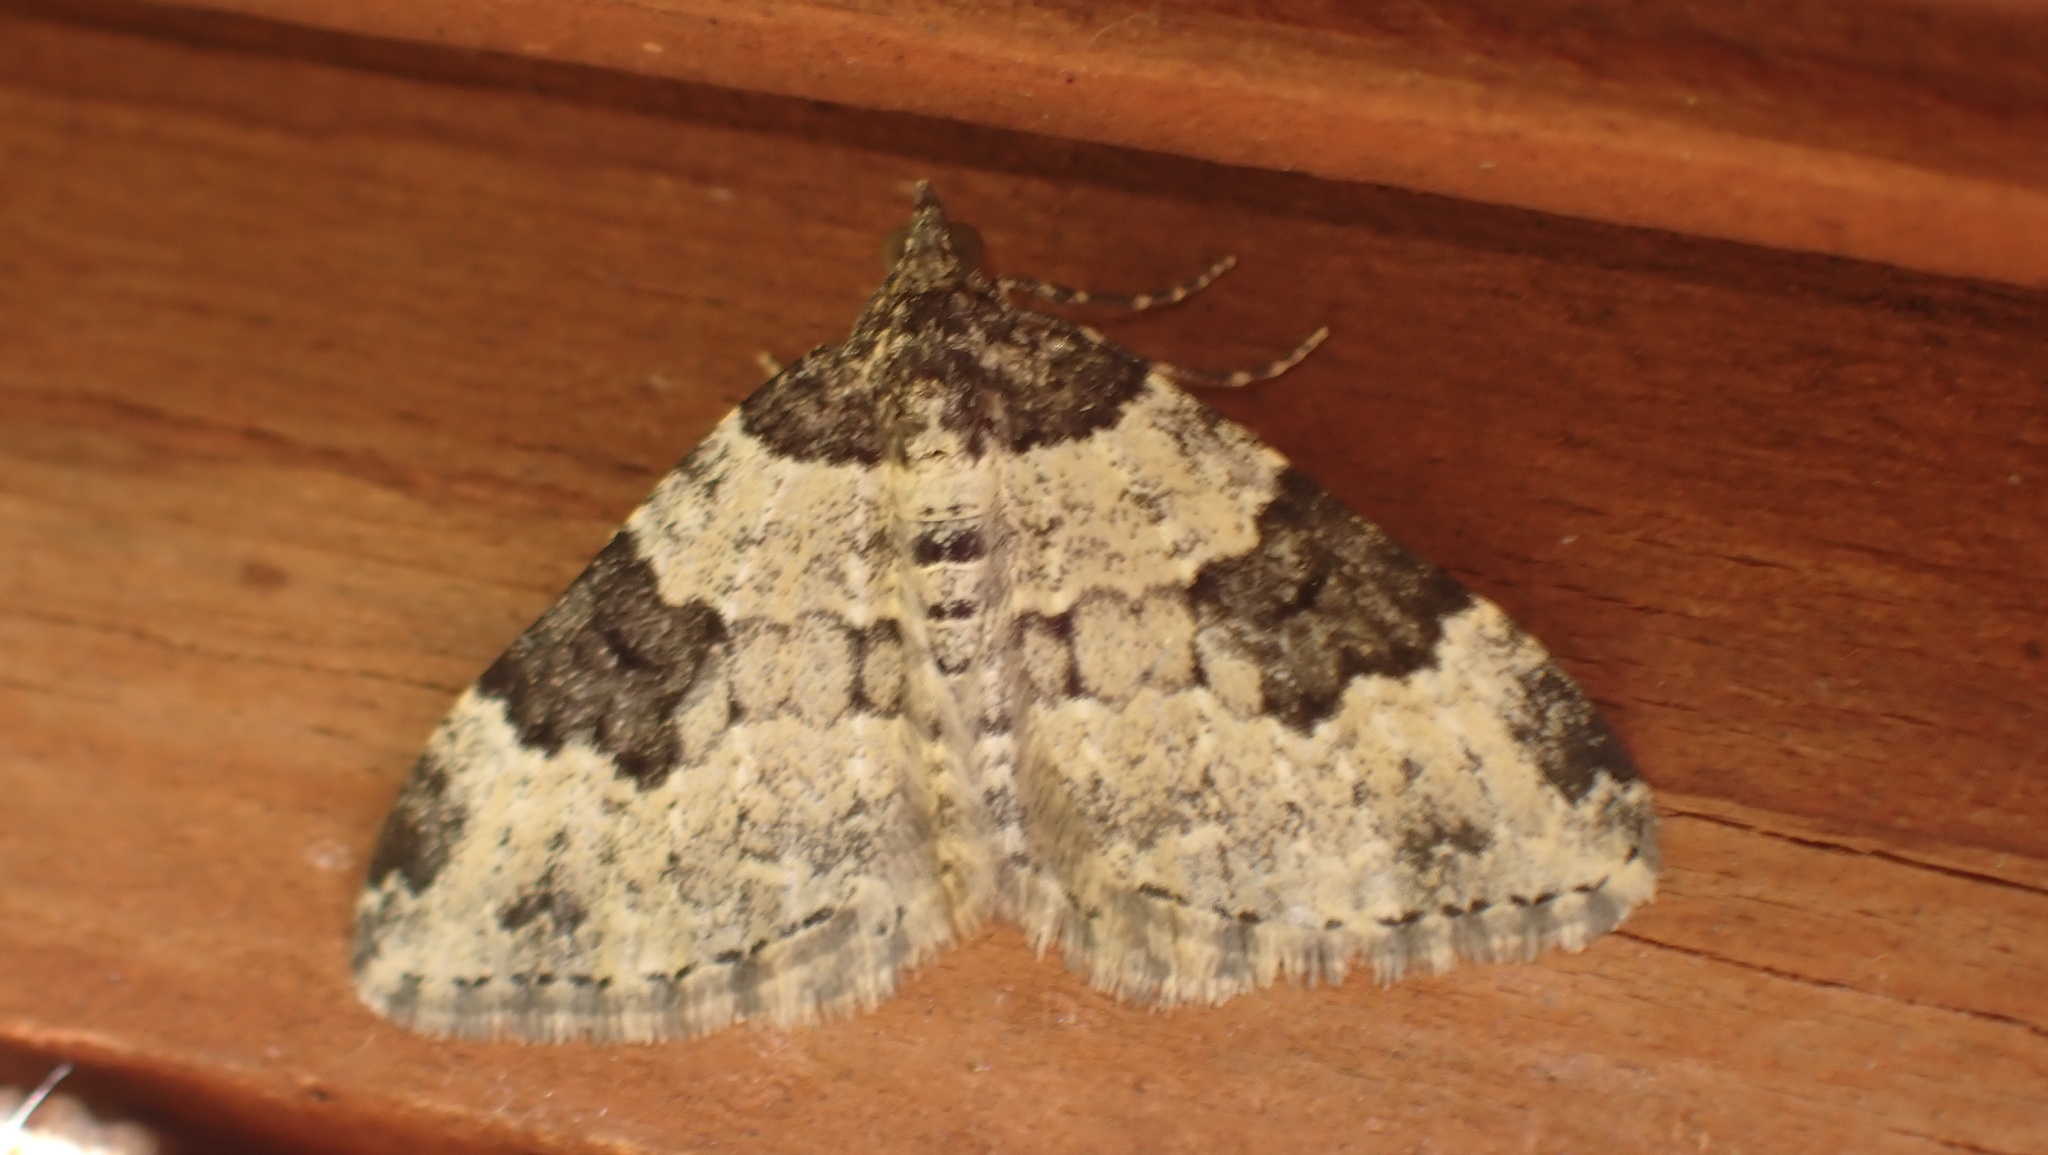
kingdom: Animalia
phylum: Arthropoda
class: Insecta
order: Lepidoptera
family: Geometridae
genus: Xanthorhoe
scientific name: Xanthorhoe fluctuata
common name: Garden carpet
